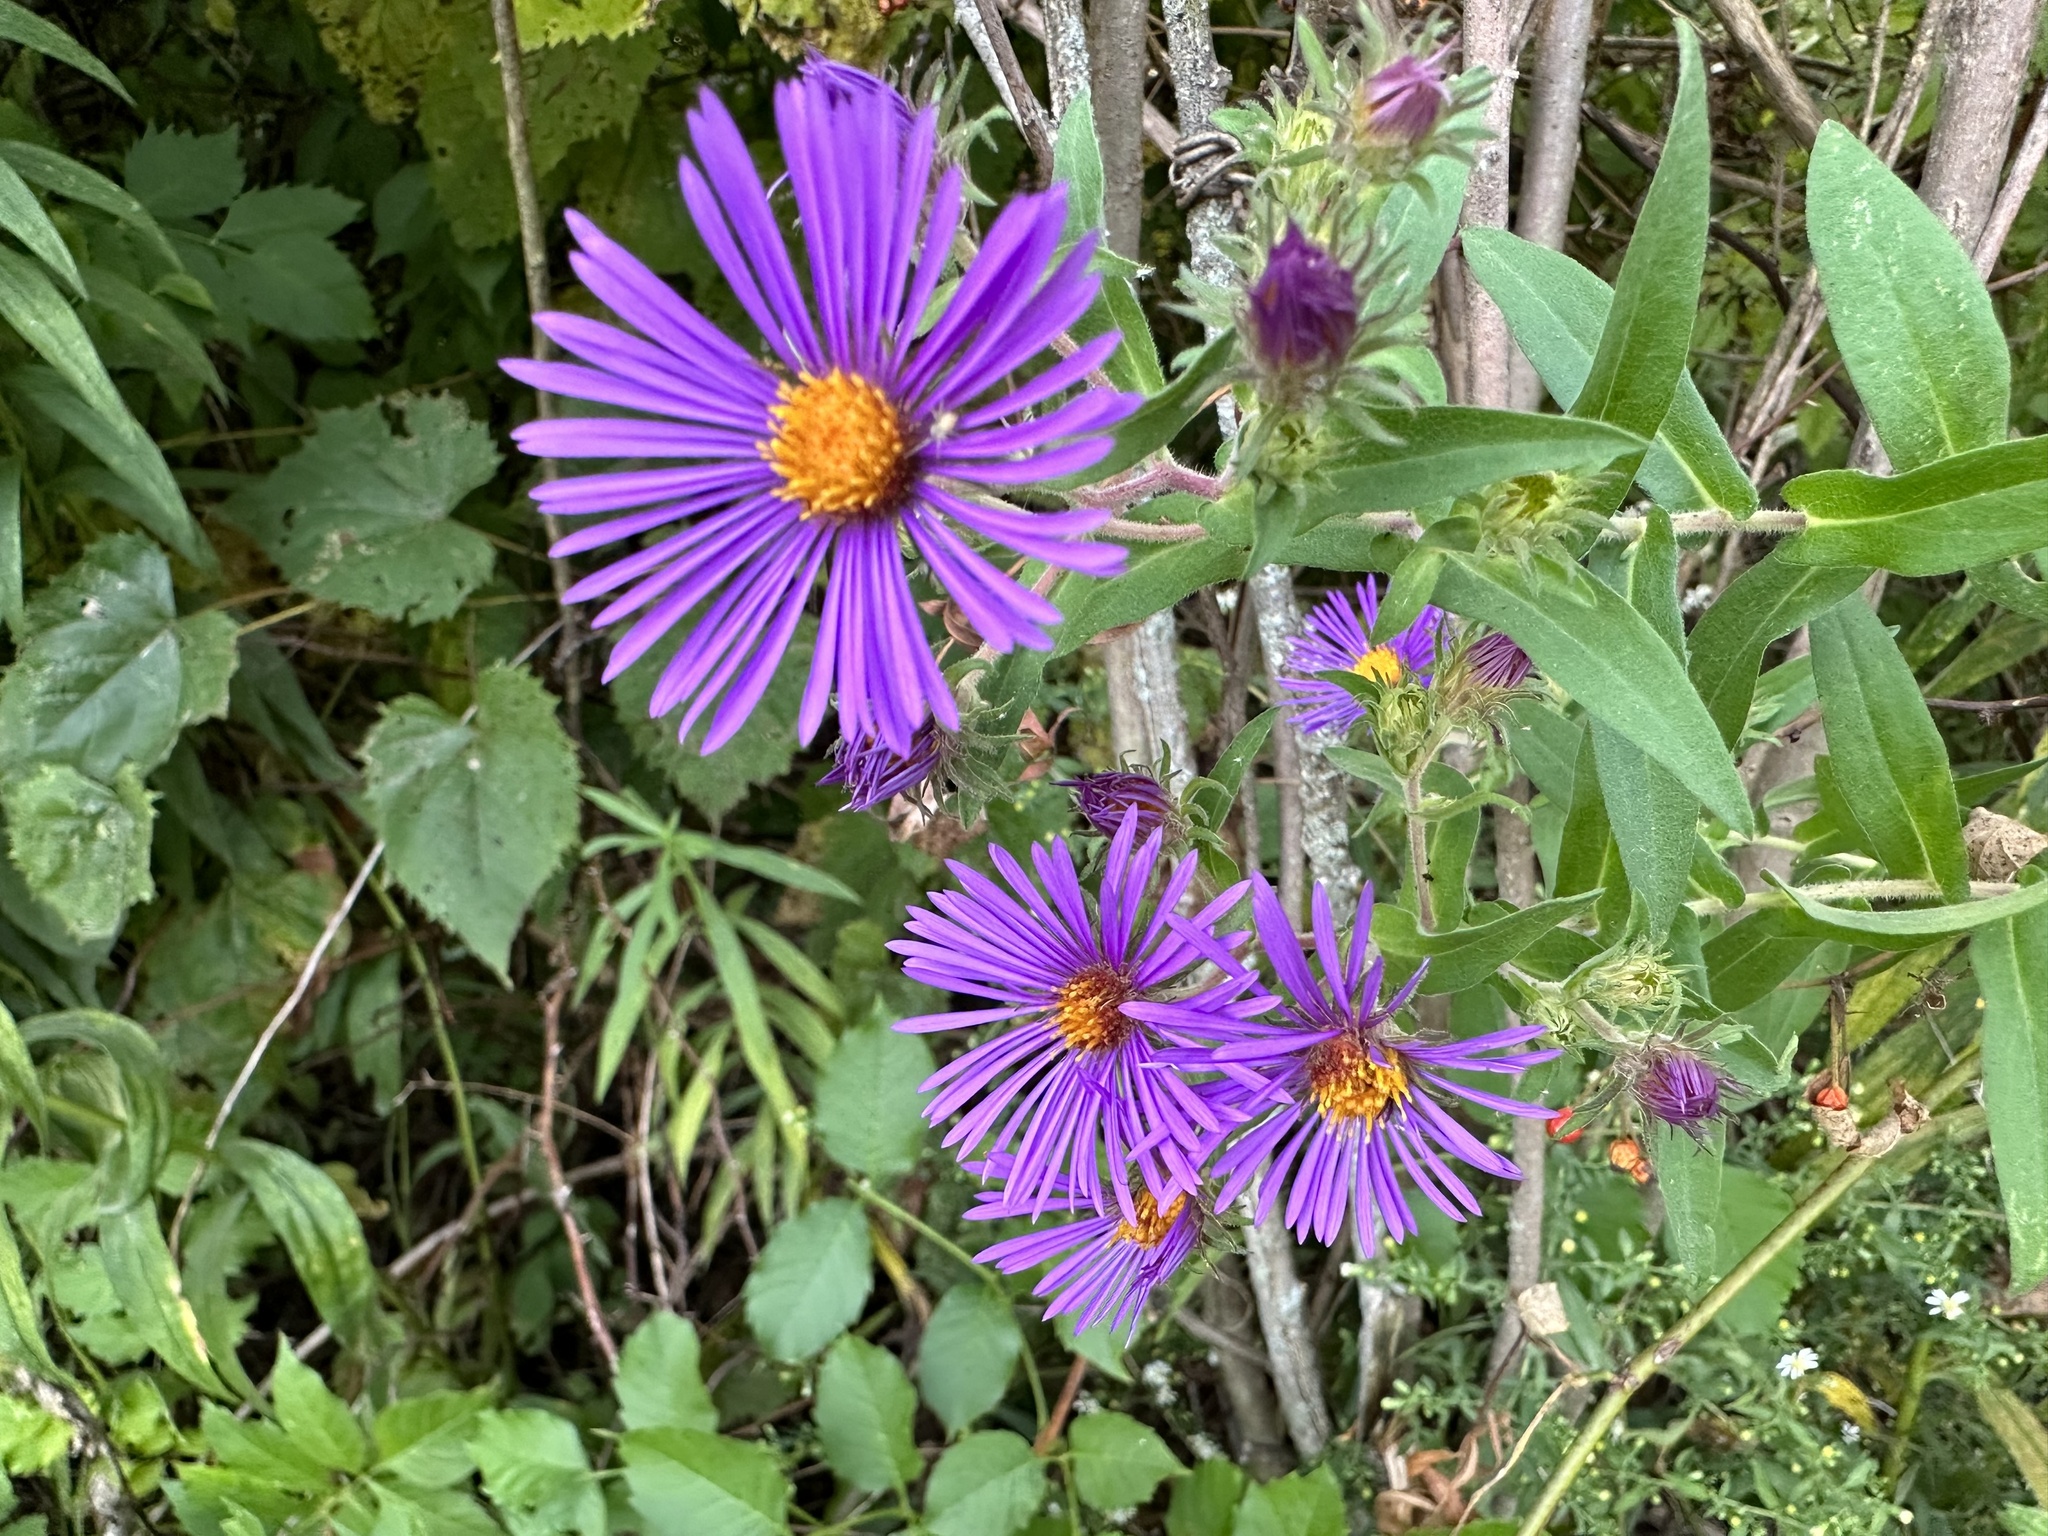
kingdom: Plantae
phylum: Tracheophyta
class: Magnoliopsida
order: Asterales
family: Asteraceae
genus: Symphyotrichum
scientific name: Symphyotrichum novae-angliae
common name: Michaelmas daisy
